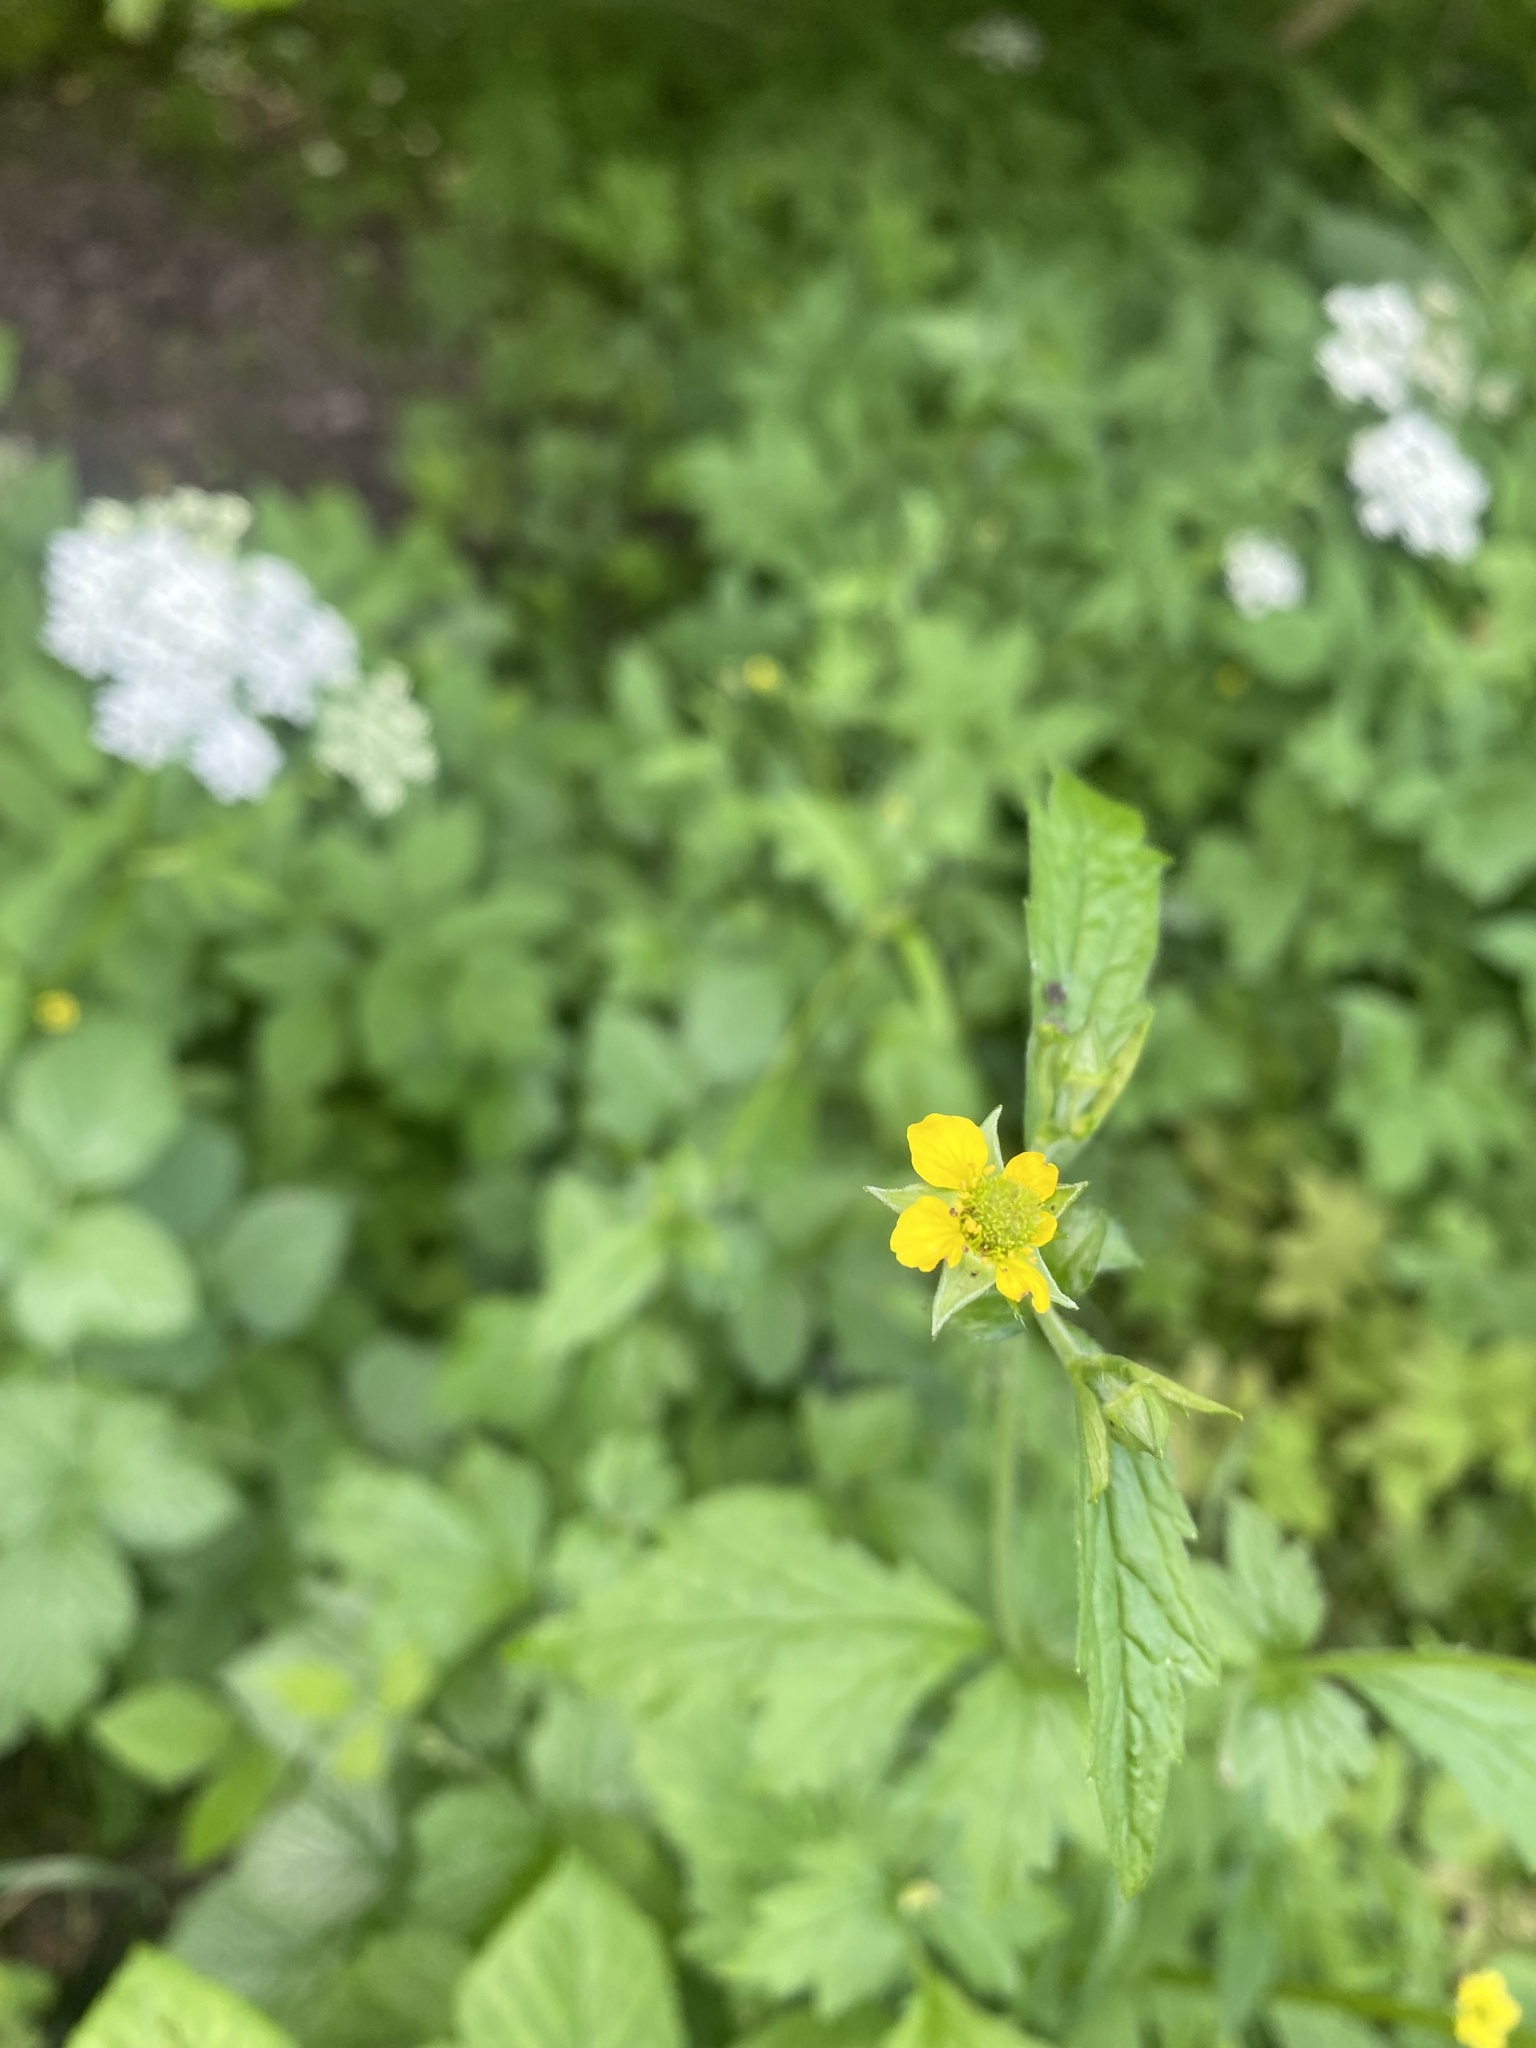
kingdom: Plantae
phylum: Tracheophyta
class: Magnoliopsida
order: Rosales
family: Rosaceae
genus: Geum
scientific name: Geum urbanum
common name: Wood avens
